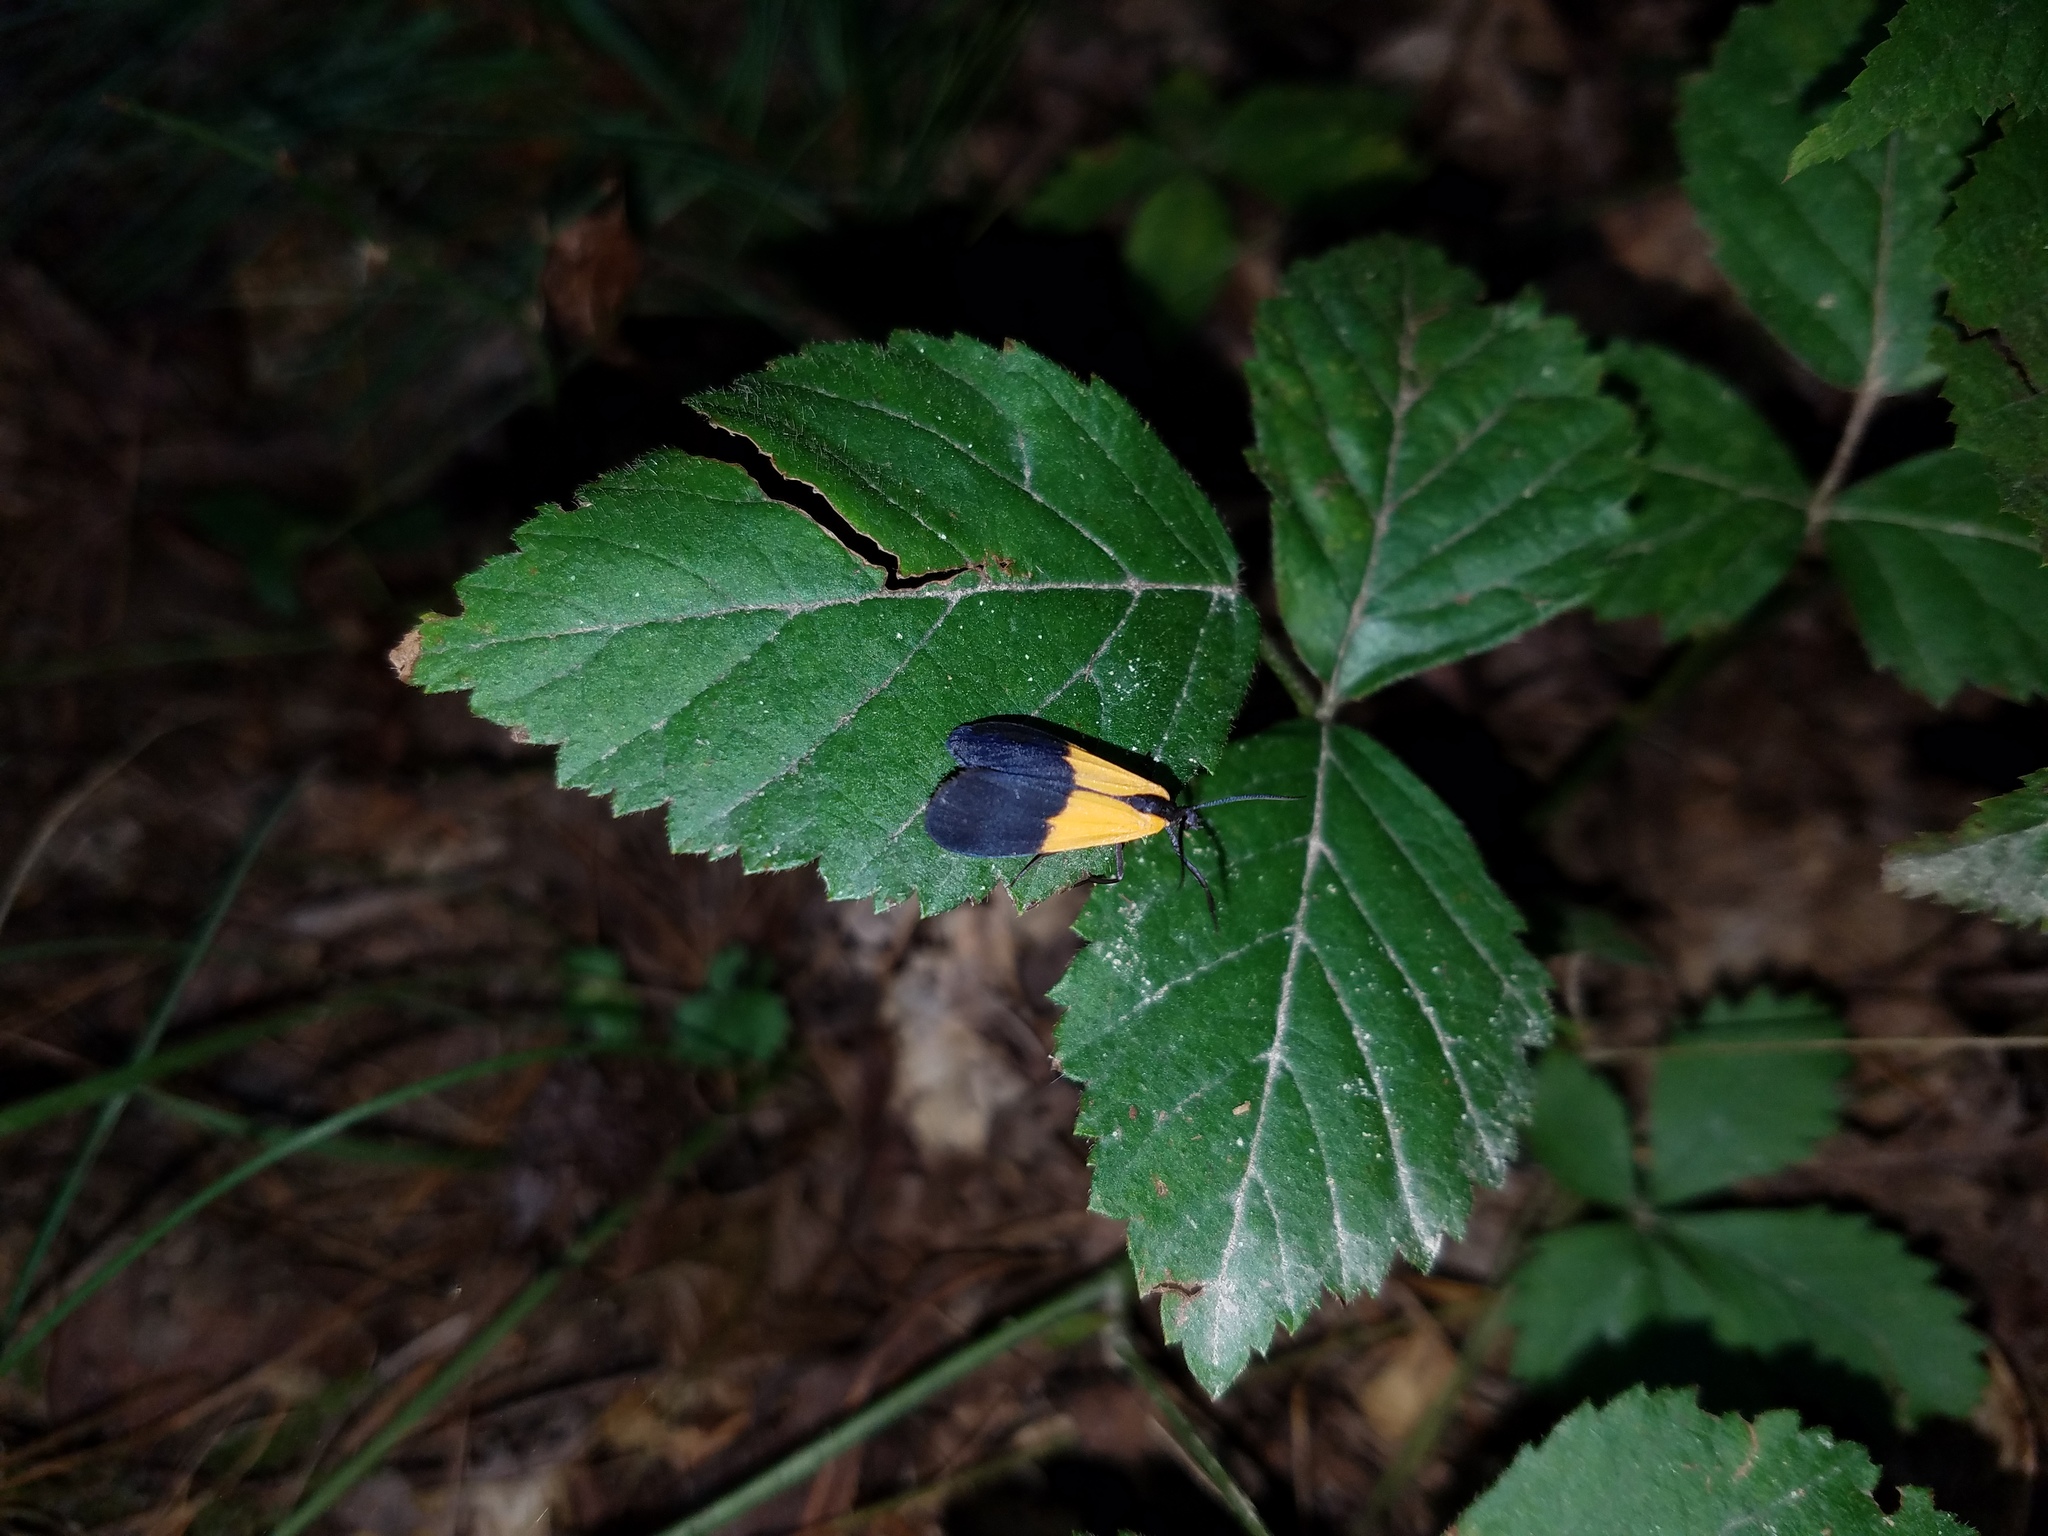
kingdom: Animalia
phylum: Arthropoda
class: Insecta
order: Lepidoptera
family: Erebidae
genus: Lycomorpha
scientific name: Lycomorpha pholus
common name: Black-and-yellow lichen moth
